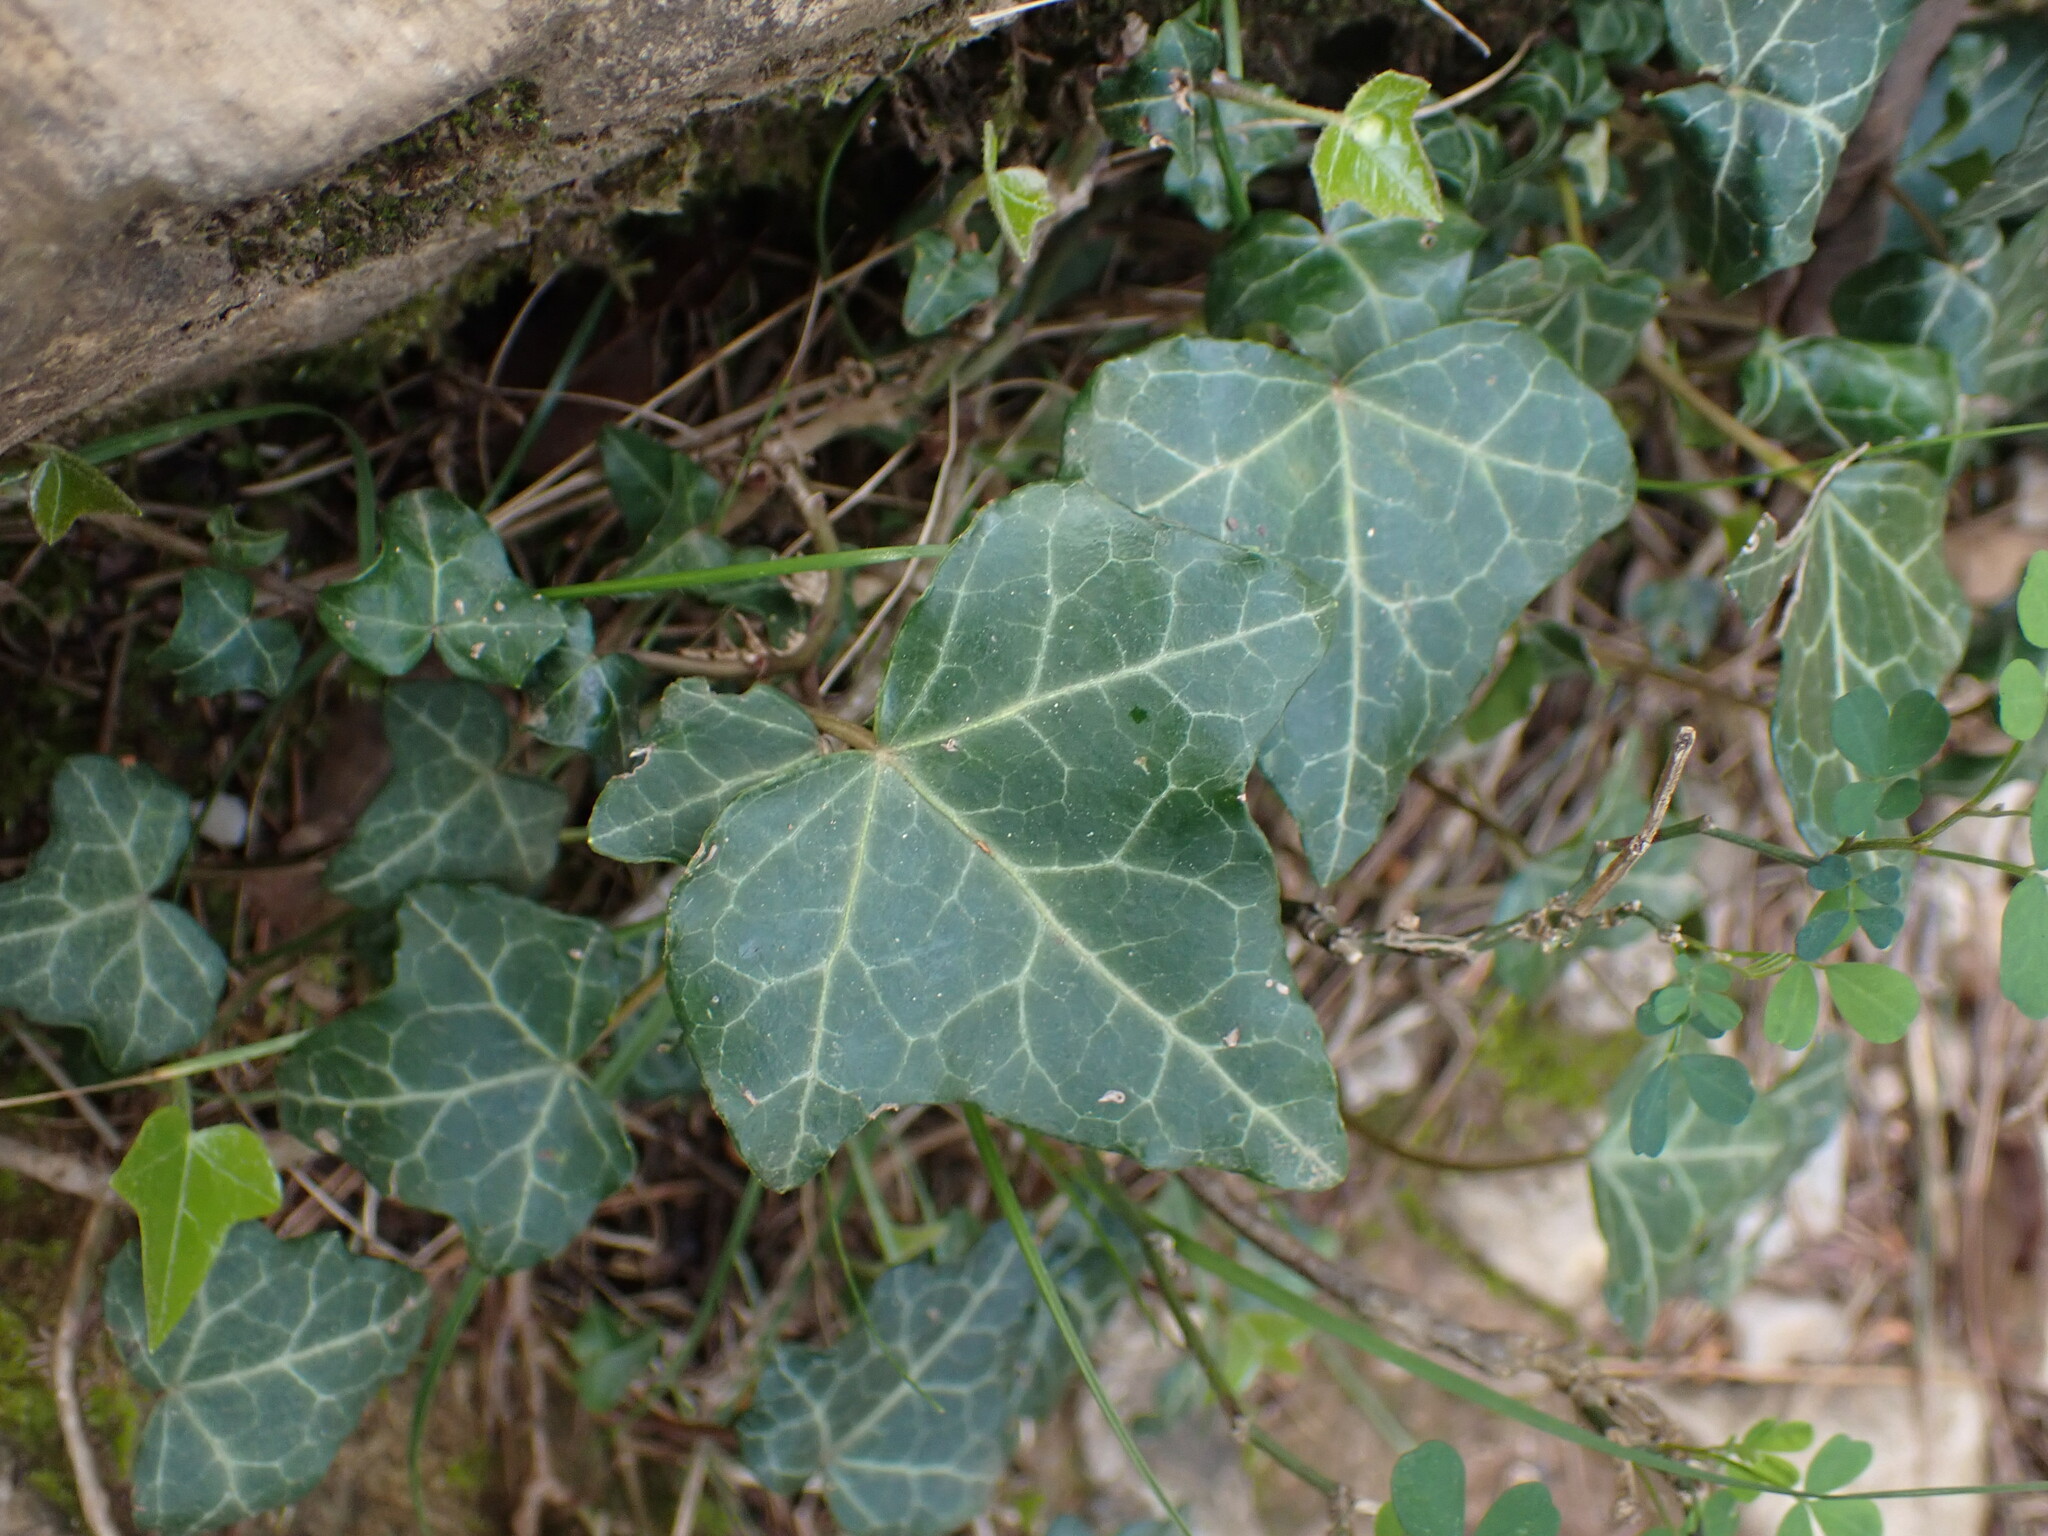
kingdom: Plantae
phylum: Tracheophyta
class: Magnoliopsida
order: Apiales
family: Araliaceae
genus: Hedera
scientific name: Hedera helix
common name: Ivy
